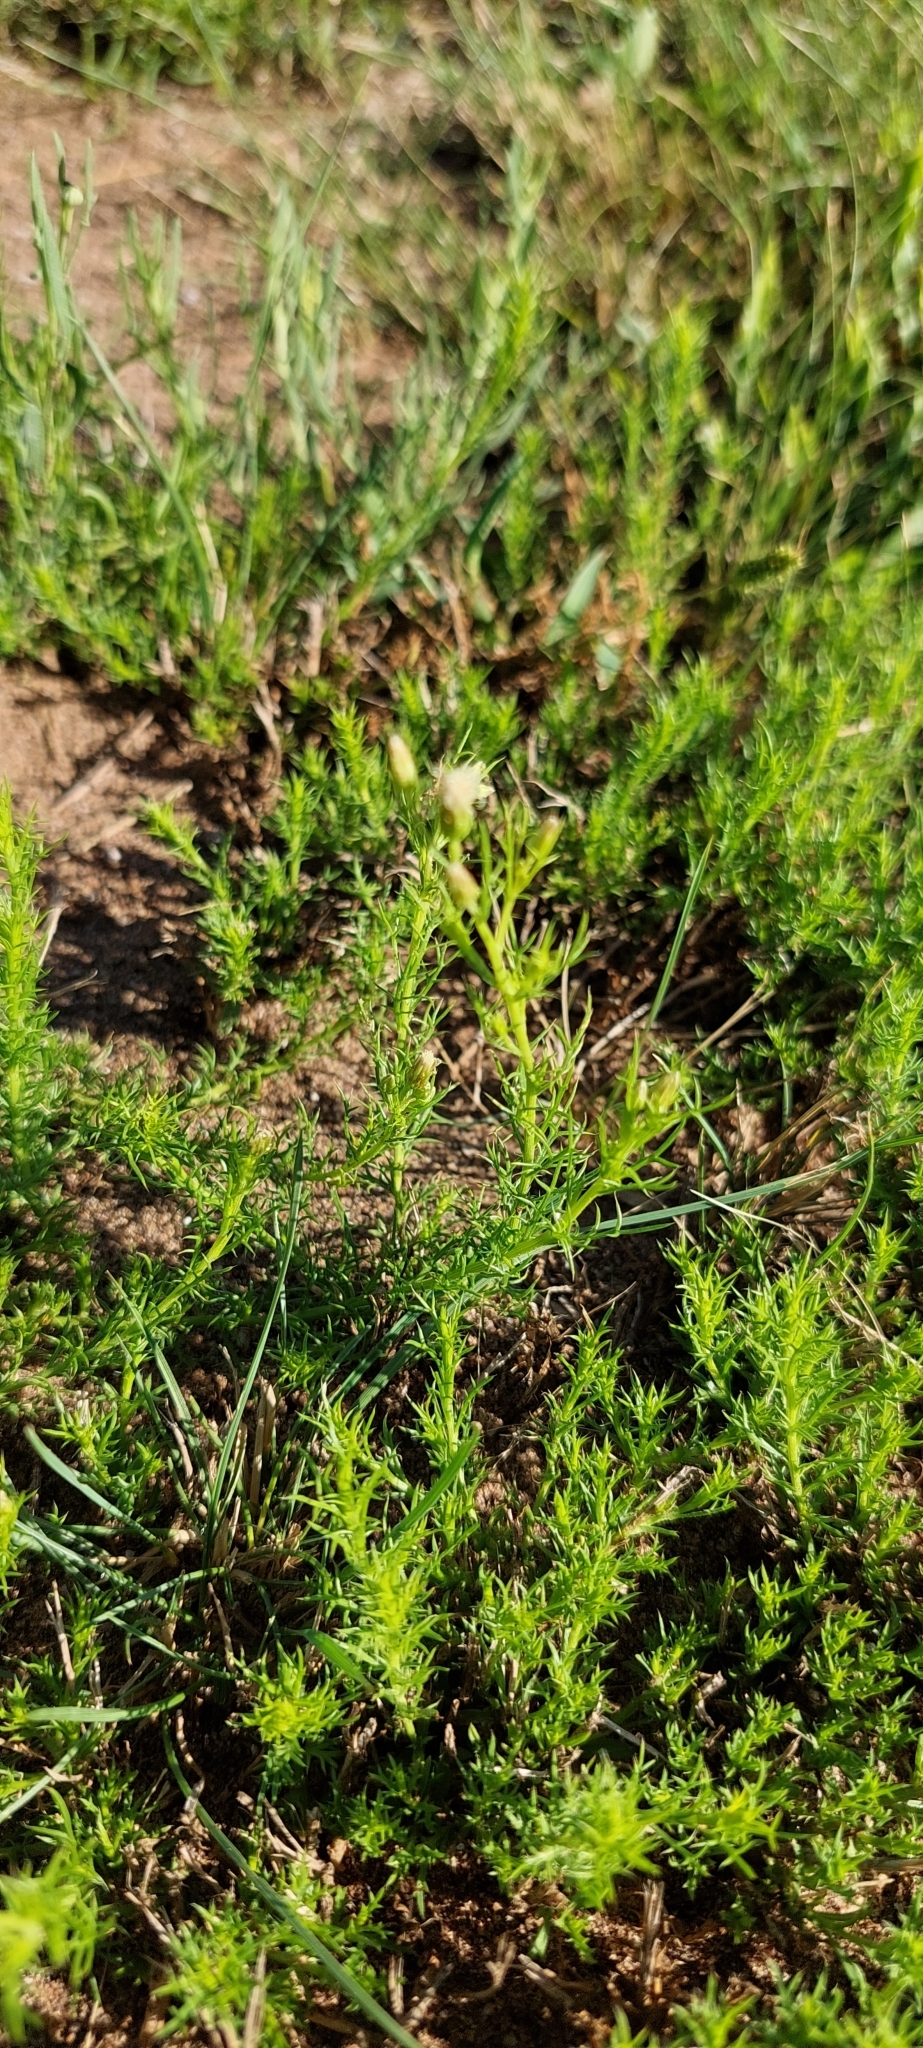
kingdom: Plantae
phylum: Tracheophyta
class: Magnoliopsida
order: Asterales
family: Asteraceae
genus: Baccharis
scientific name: Baccharis ulicina
